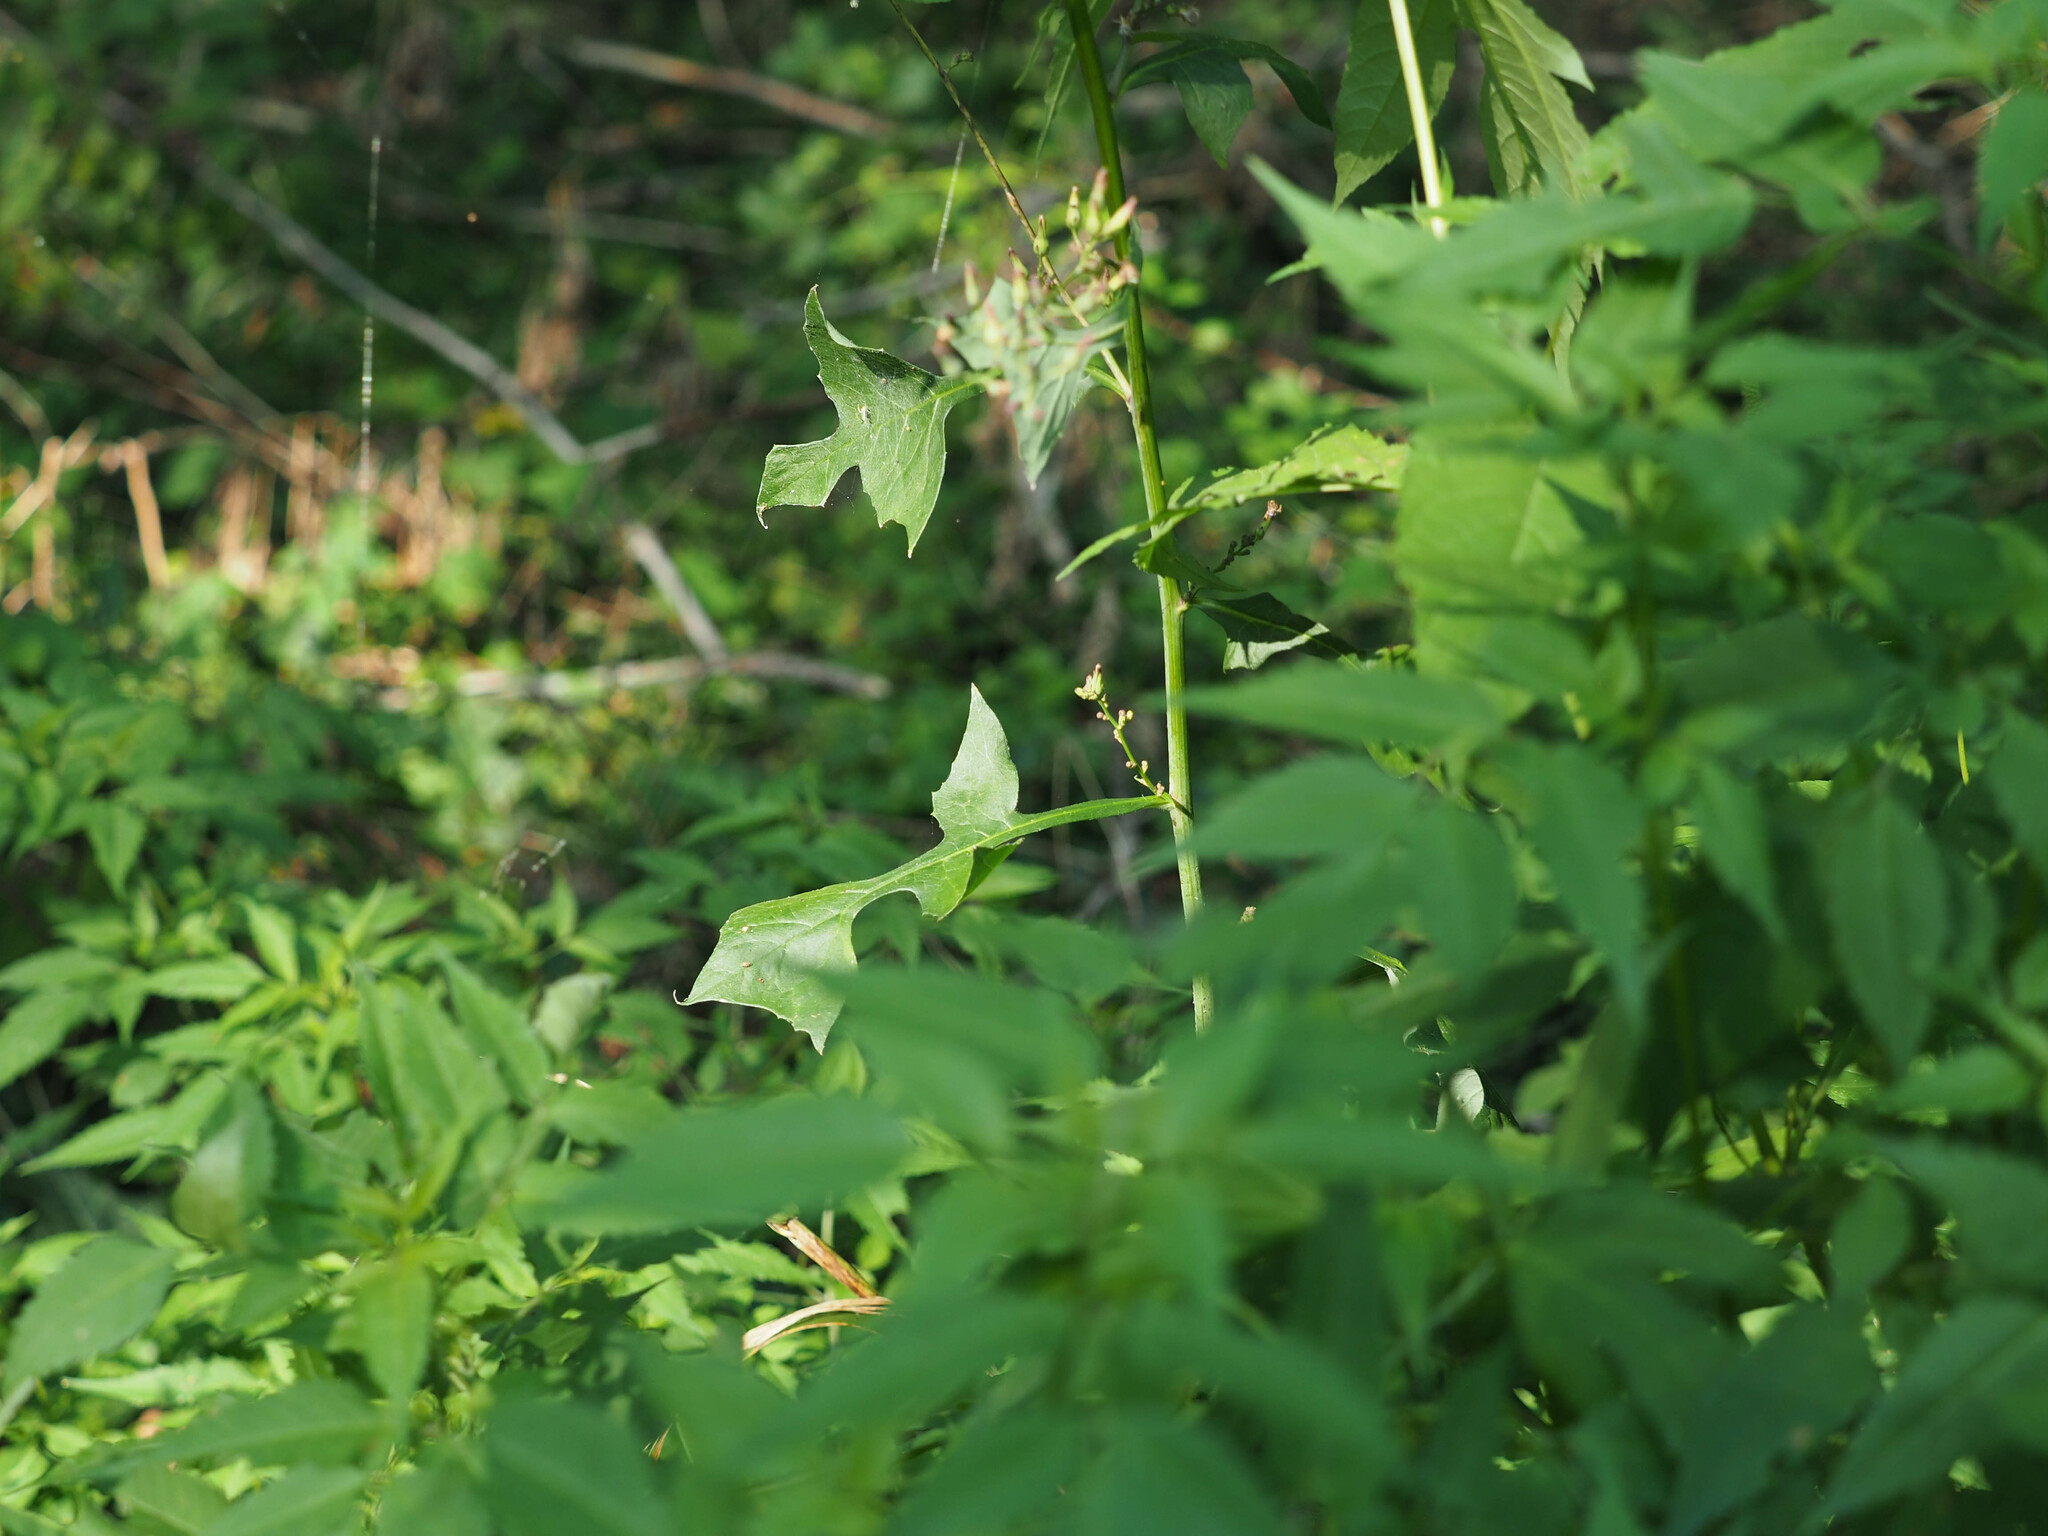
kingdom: Plantae
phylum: Tracheophyta
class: Magnoliopsida
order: Asterales
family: Asteraceae
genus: Lactuca
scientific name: Lactuca floridana
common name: Woodland lettuce
